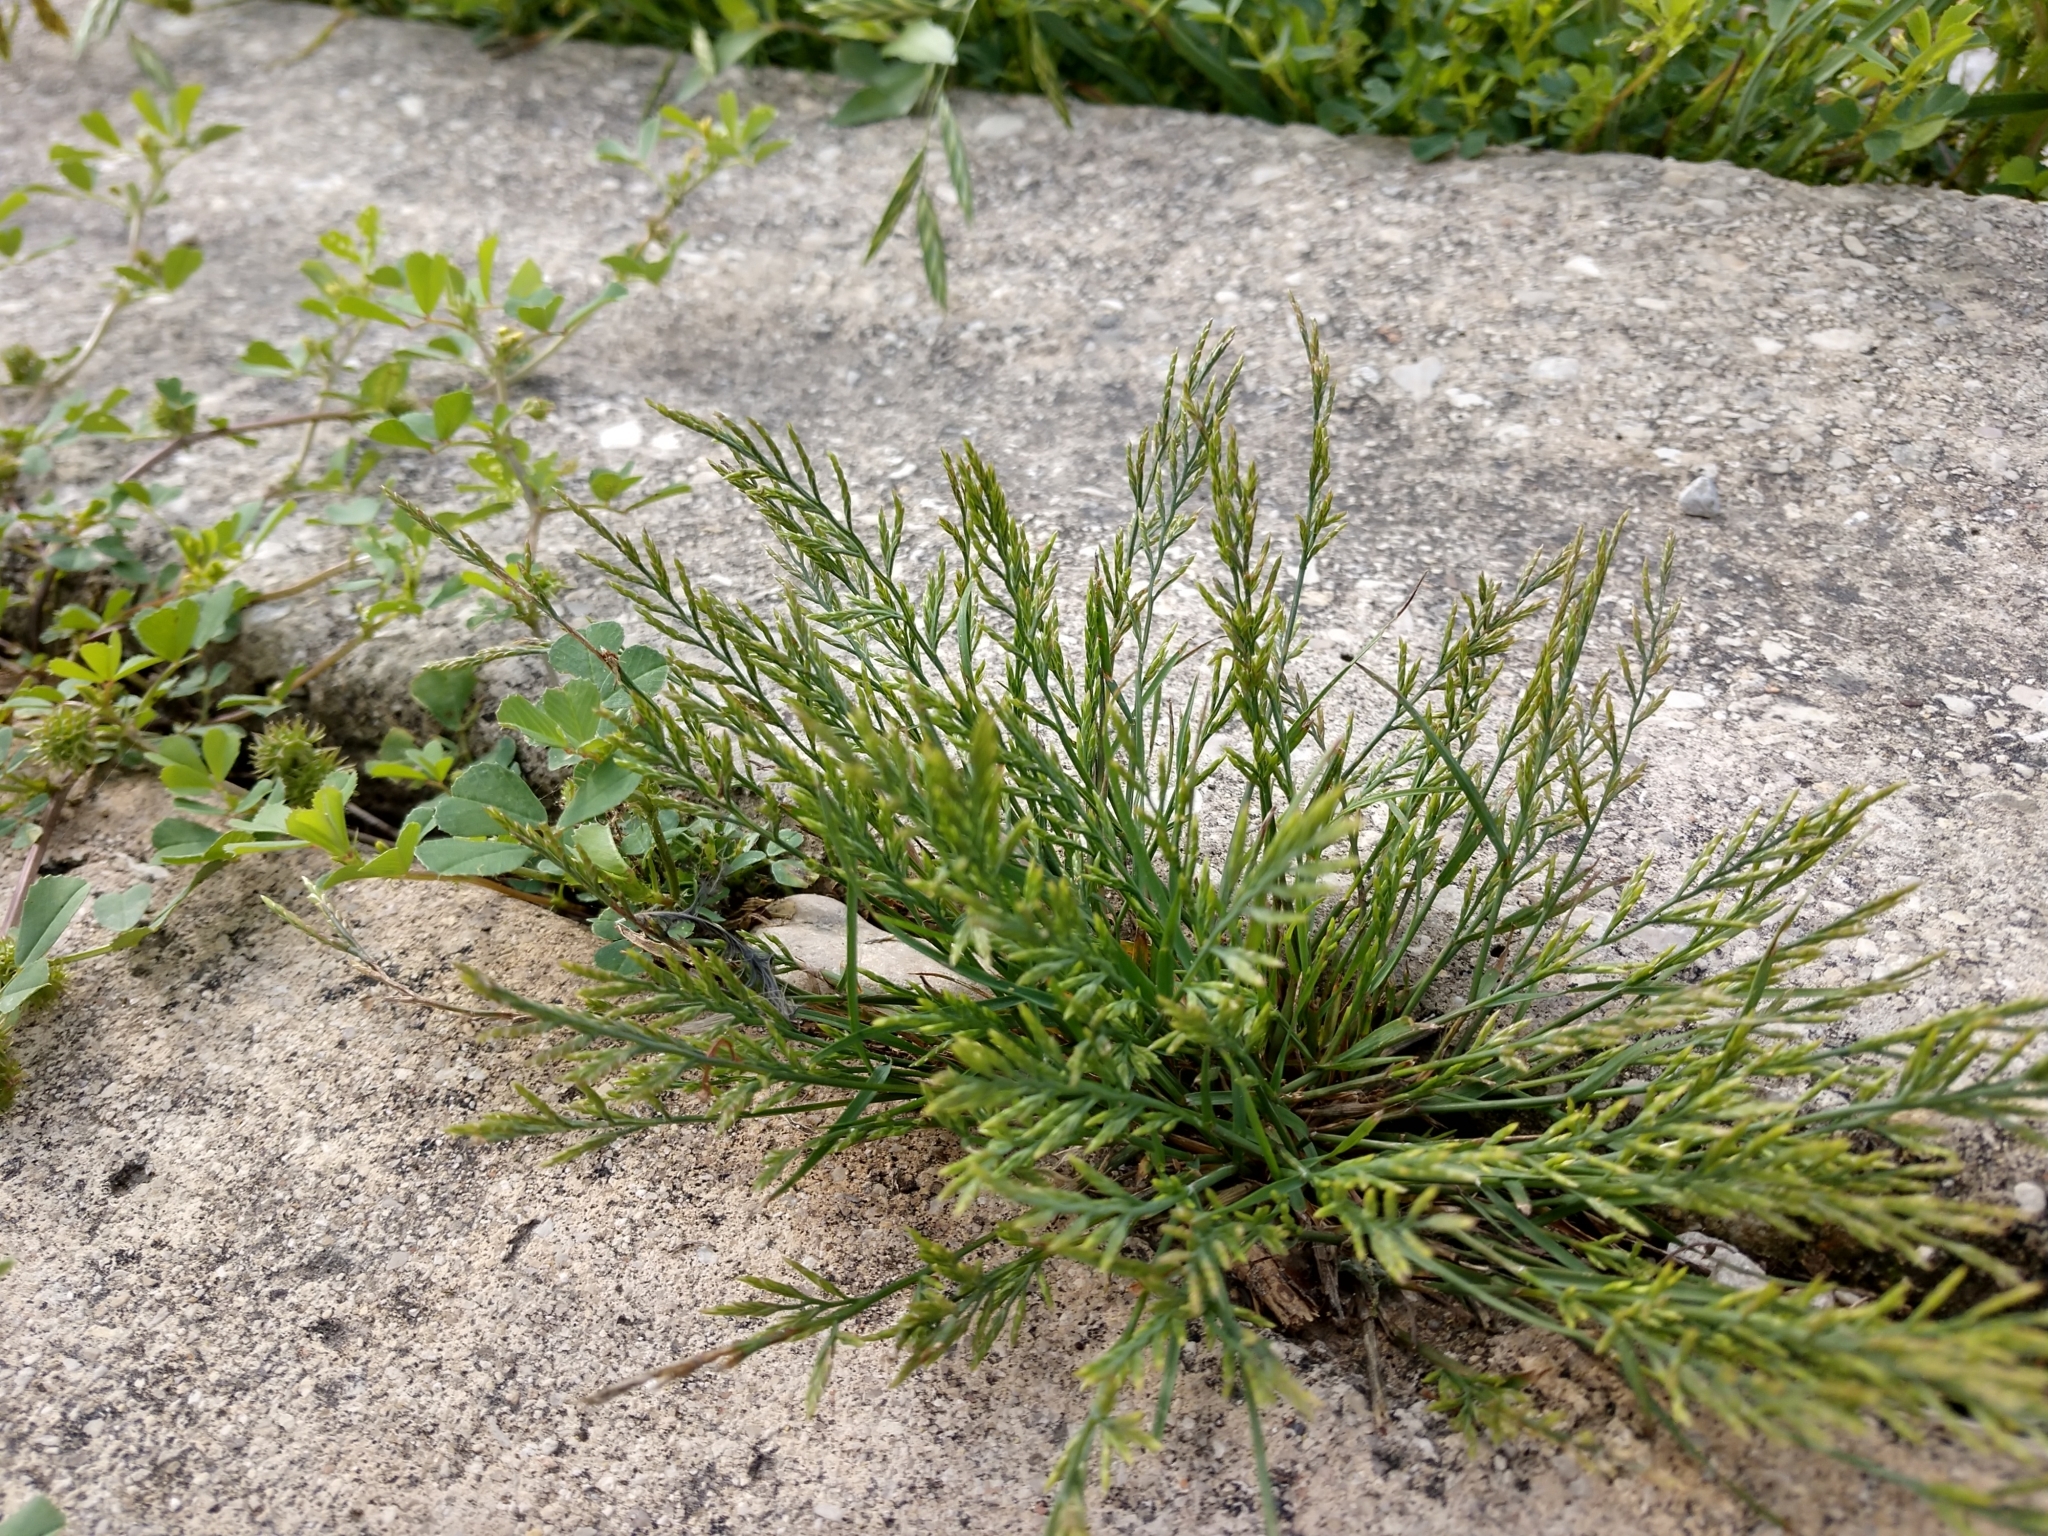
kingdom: Plantae
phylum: Tracheophyta
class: Liliopsida
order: Poales
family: Poaceae
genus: Catapodium
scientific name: Catapodium rigidum
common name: Fern-grass
